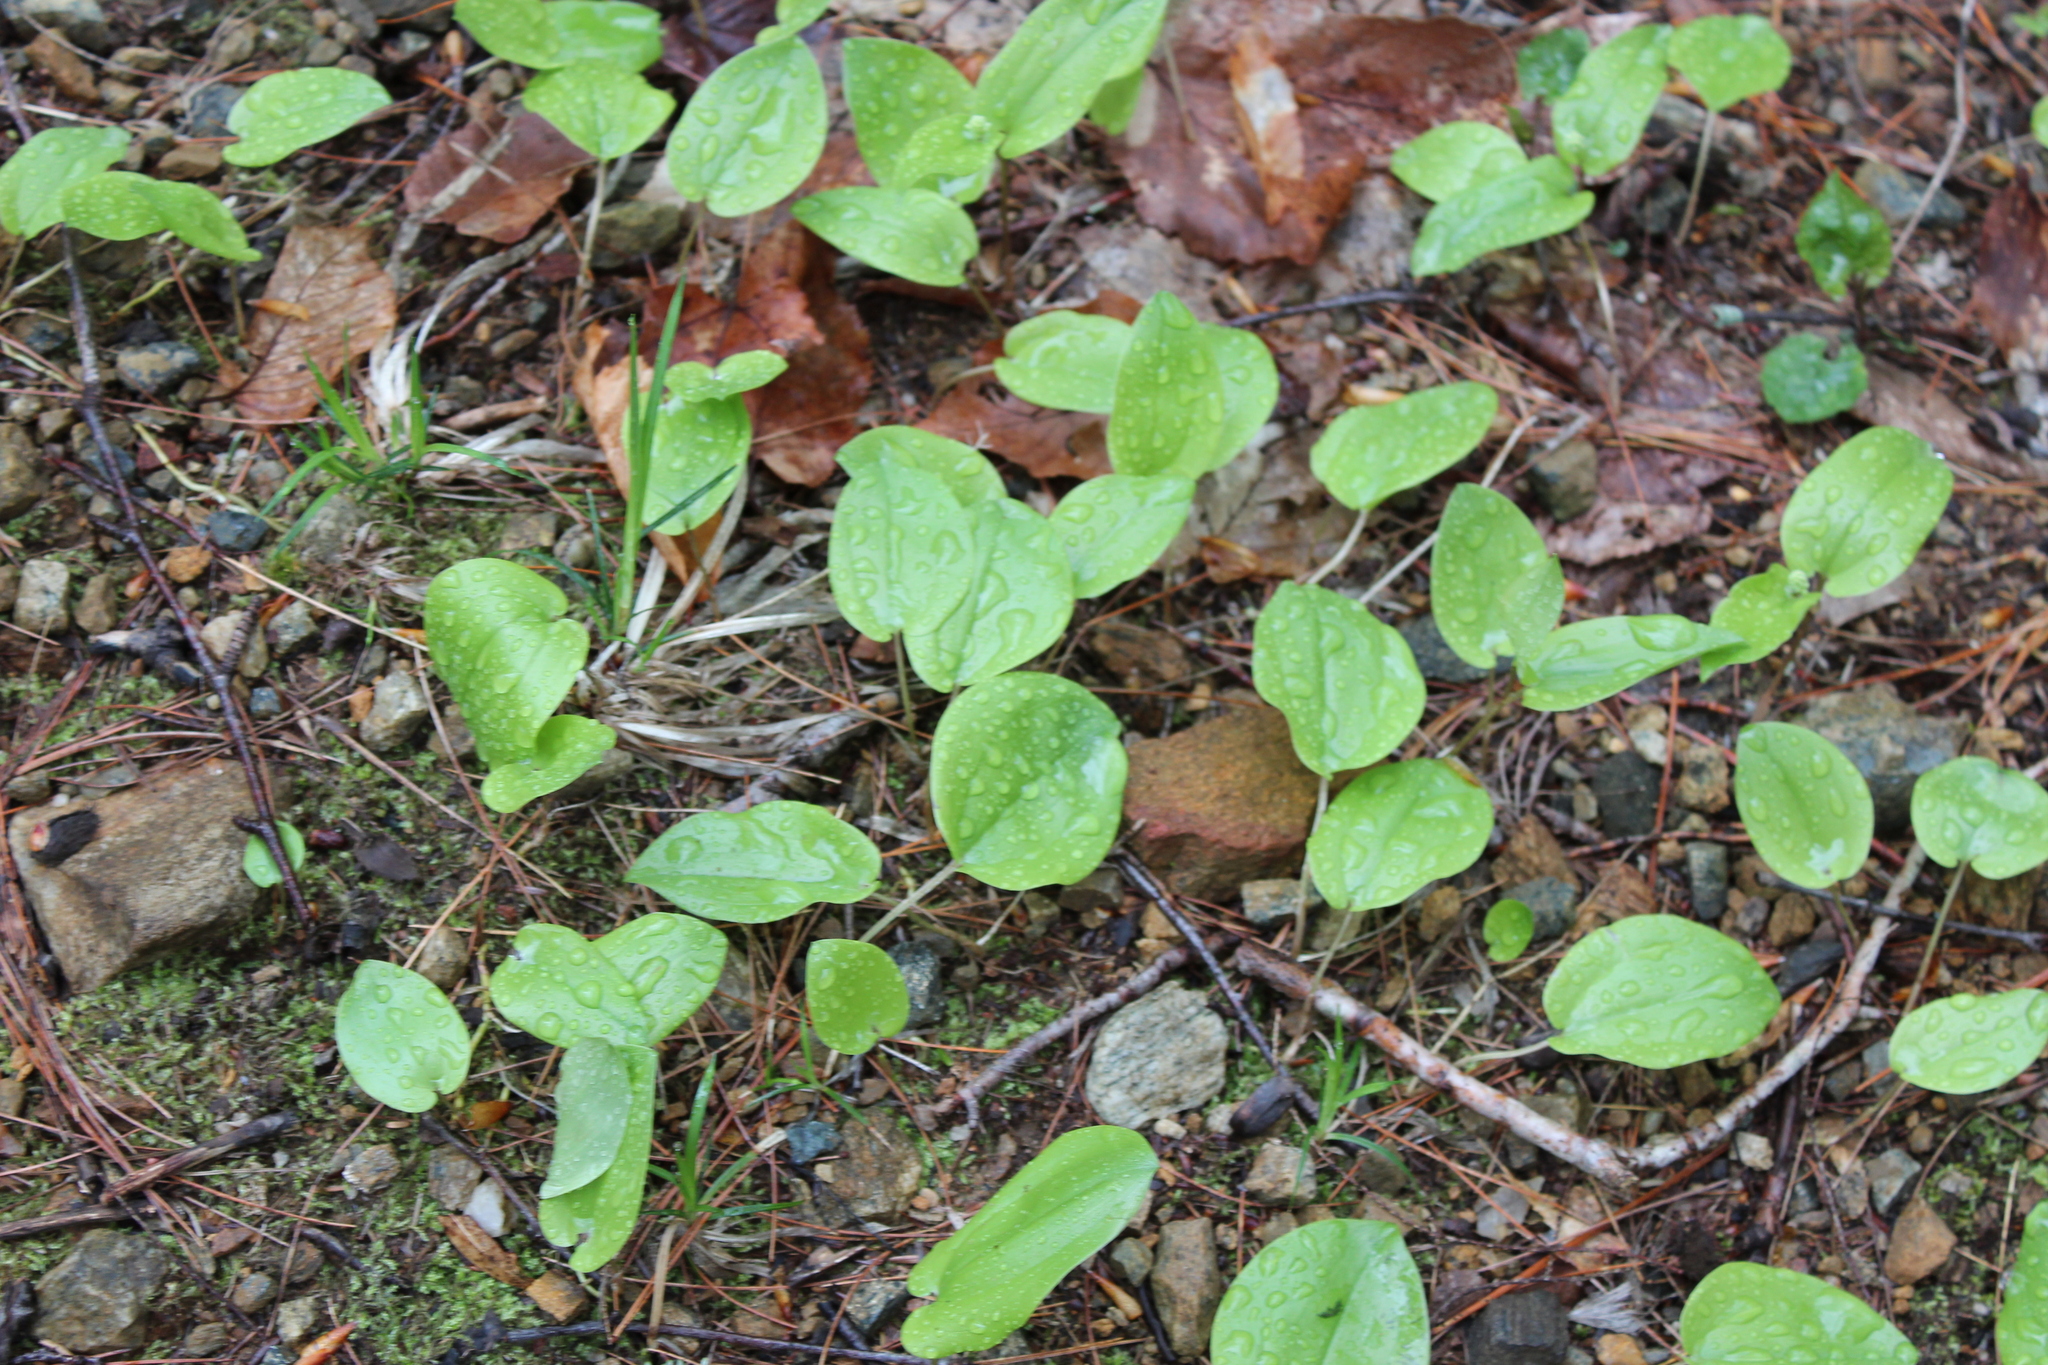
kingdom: Plantae
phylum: Tracheophyta
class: Liliopsida
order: Asparagales
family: Asparagaceae
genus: Maianthemum
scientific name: Maianthemum canadense
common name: False lily-of-the-valley
